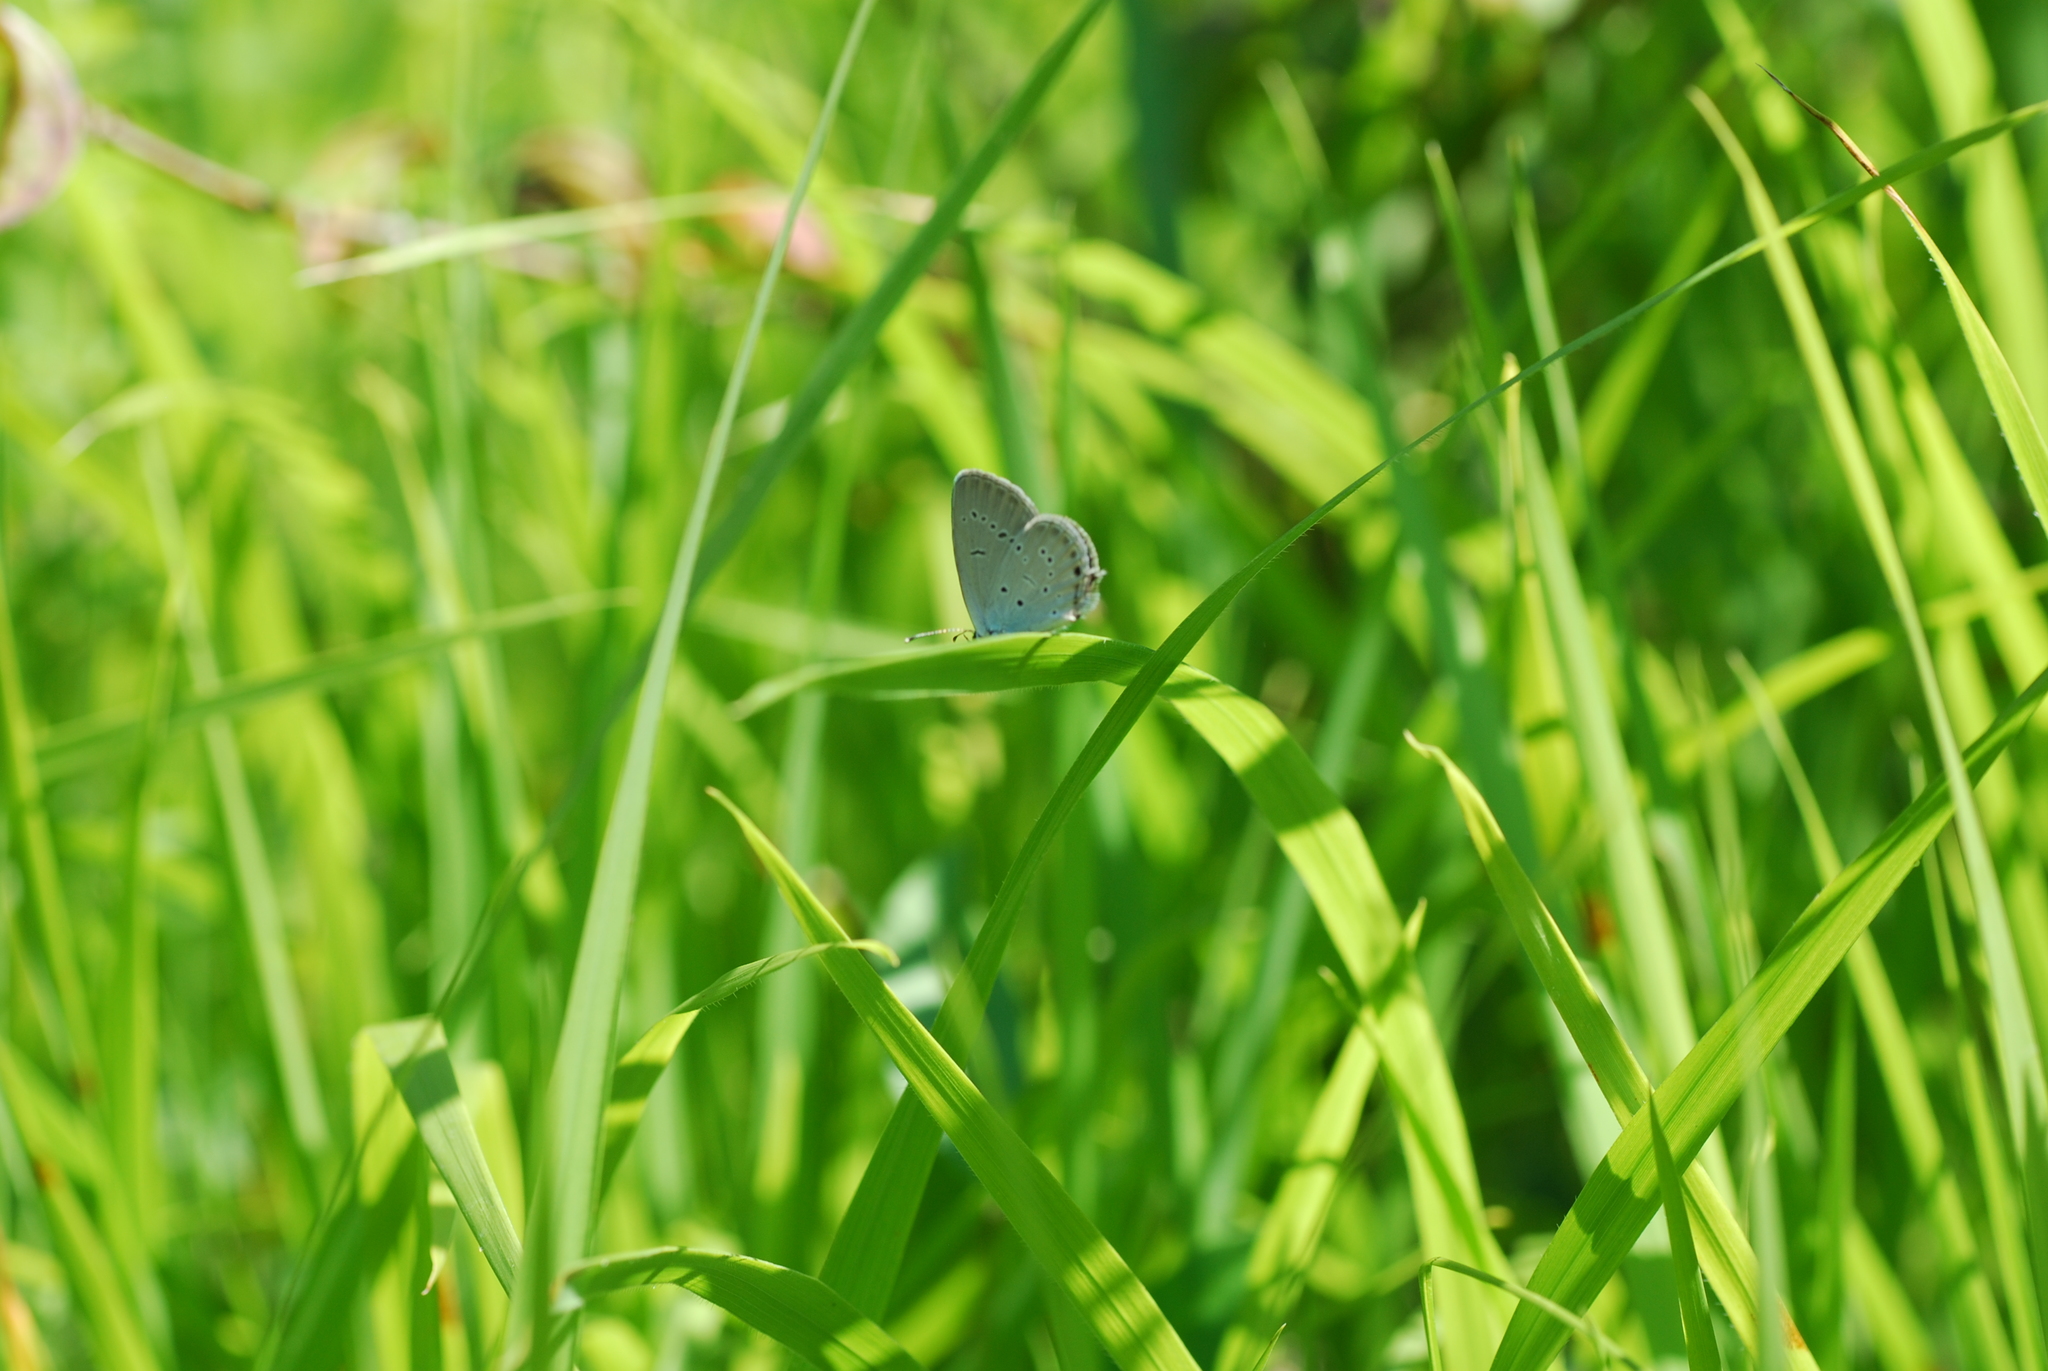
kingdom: Animalia
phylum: Arthropoda
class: Insecta
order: Lepidoptera
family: Lycaenidae
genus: Elkalyce
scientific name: Elkalyce alcetas
